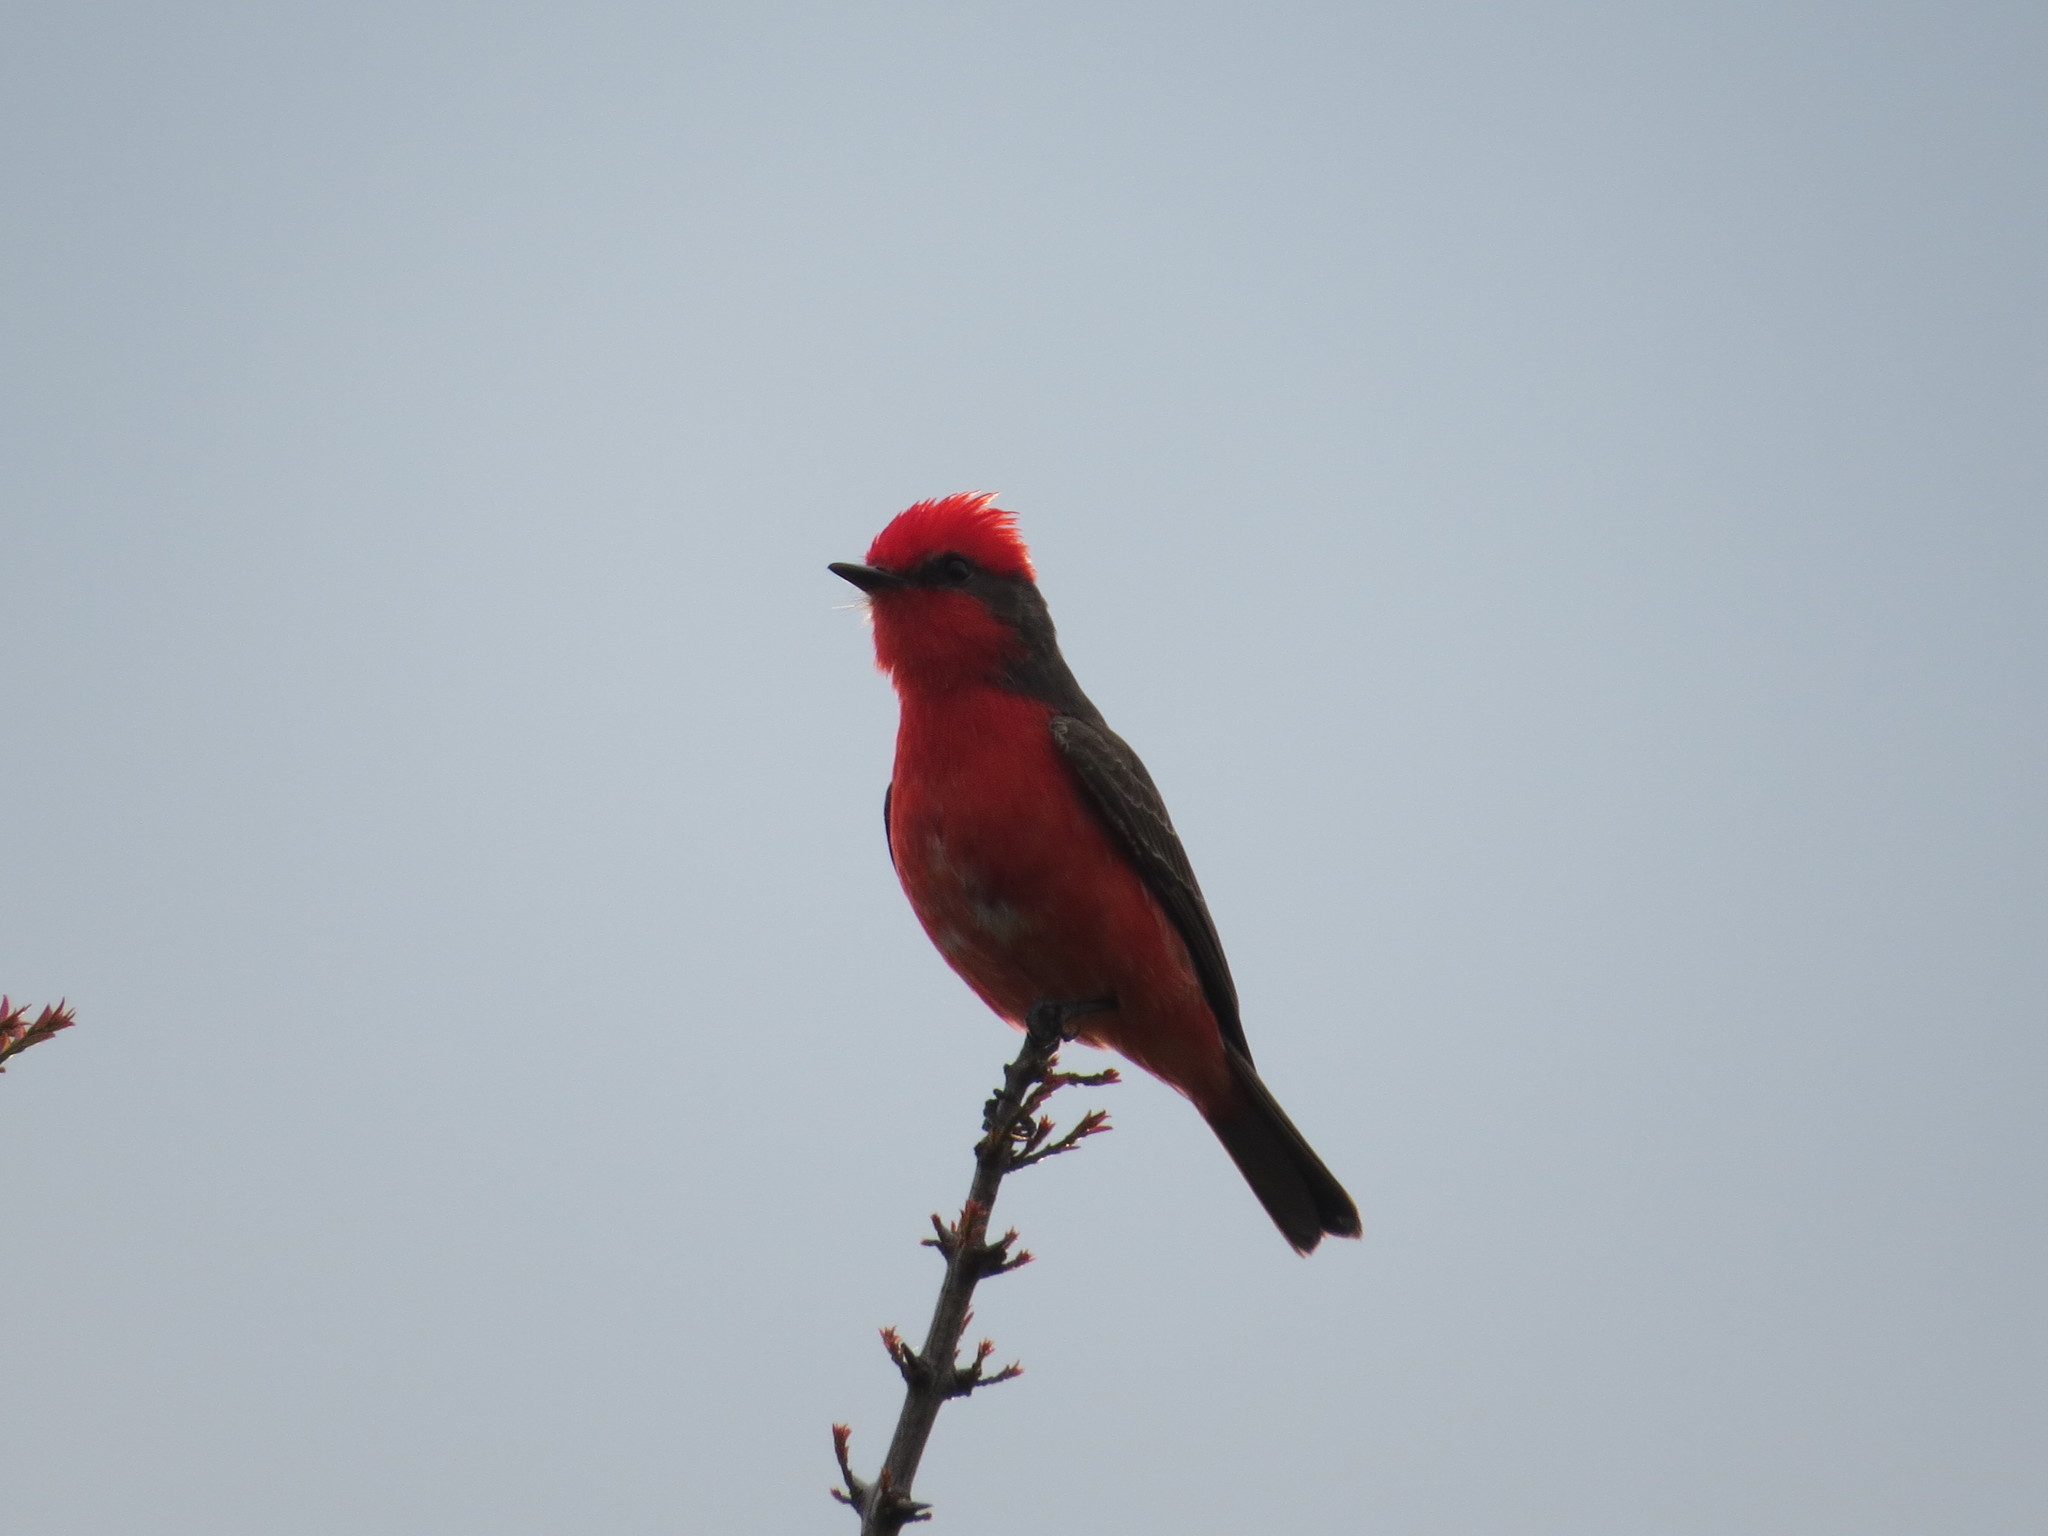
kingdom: Animalia
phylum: Chordata
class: Aves
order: Passeriformes
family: Tyrannidae
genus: Pyrocephalus
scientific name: Pyrocephalus rubinus
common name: Vermilion flycatcher
